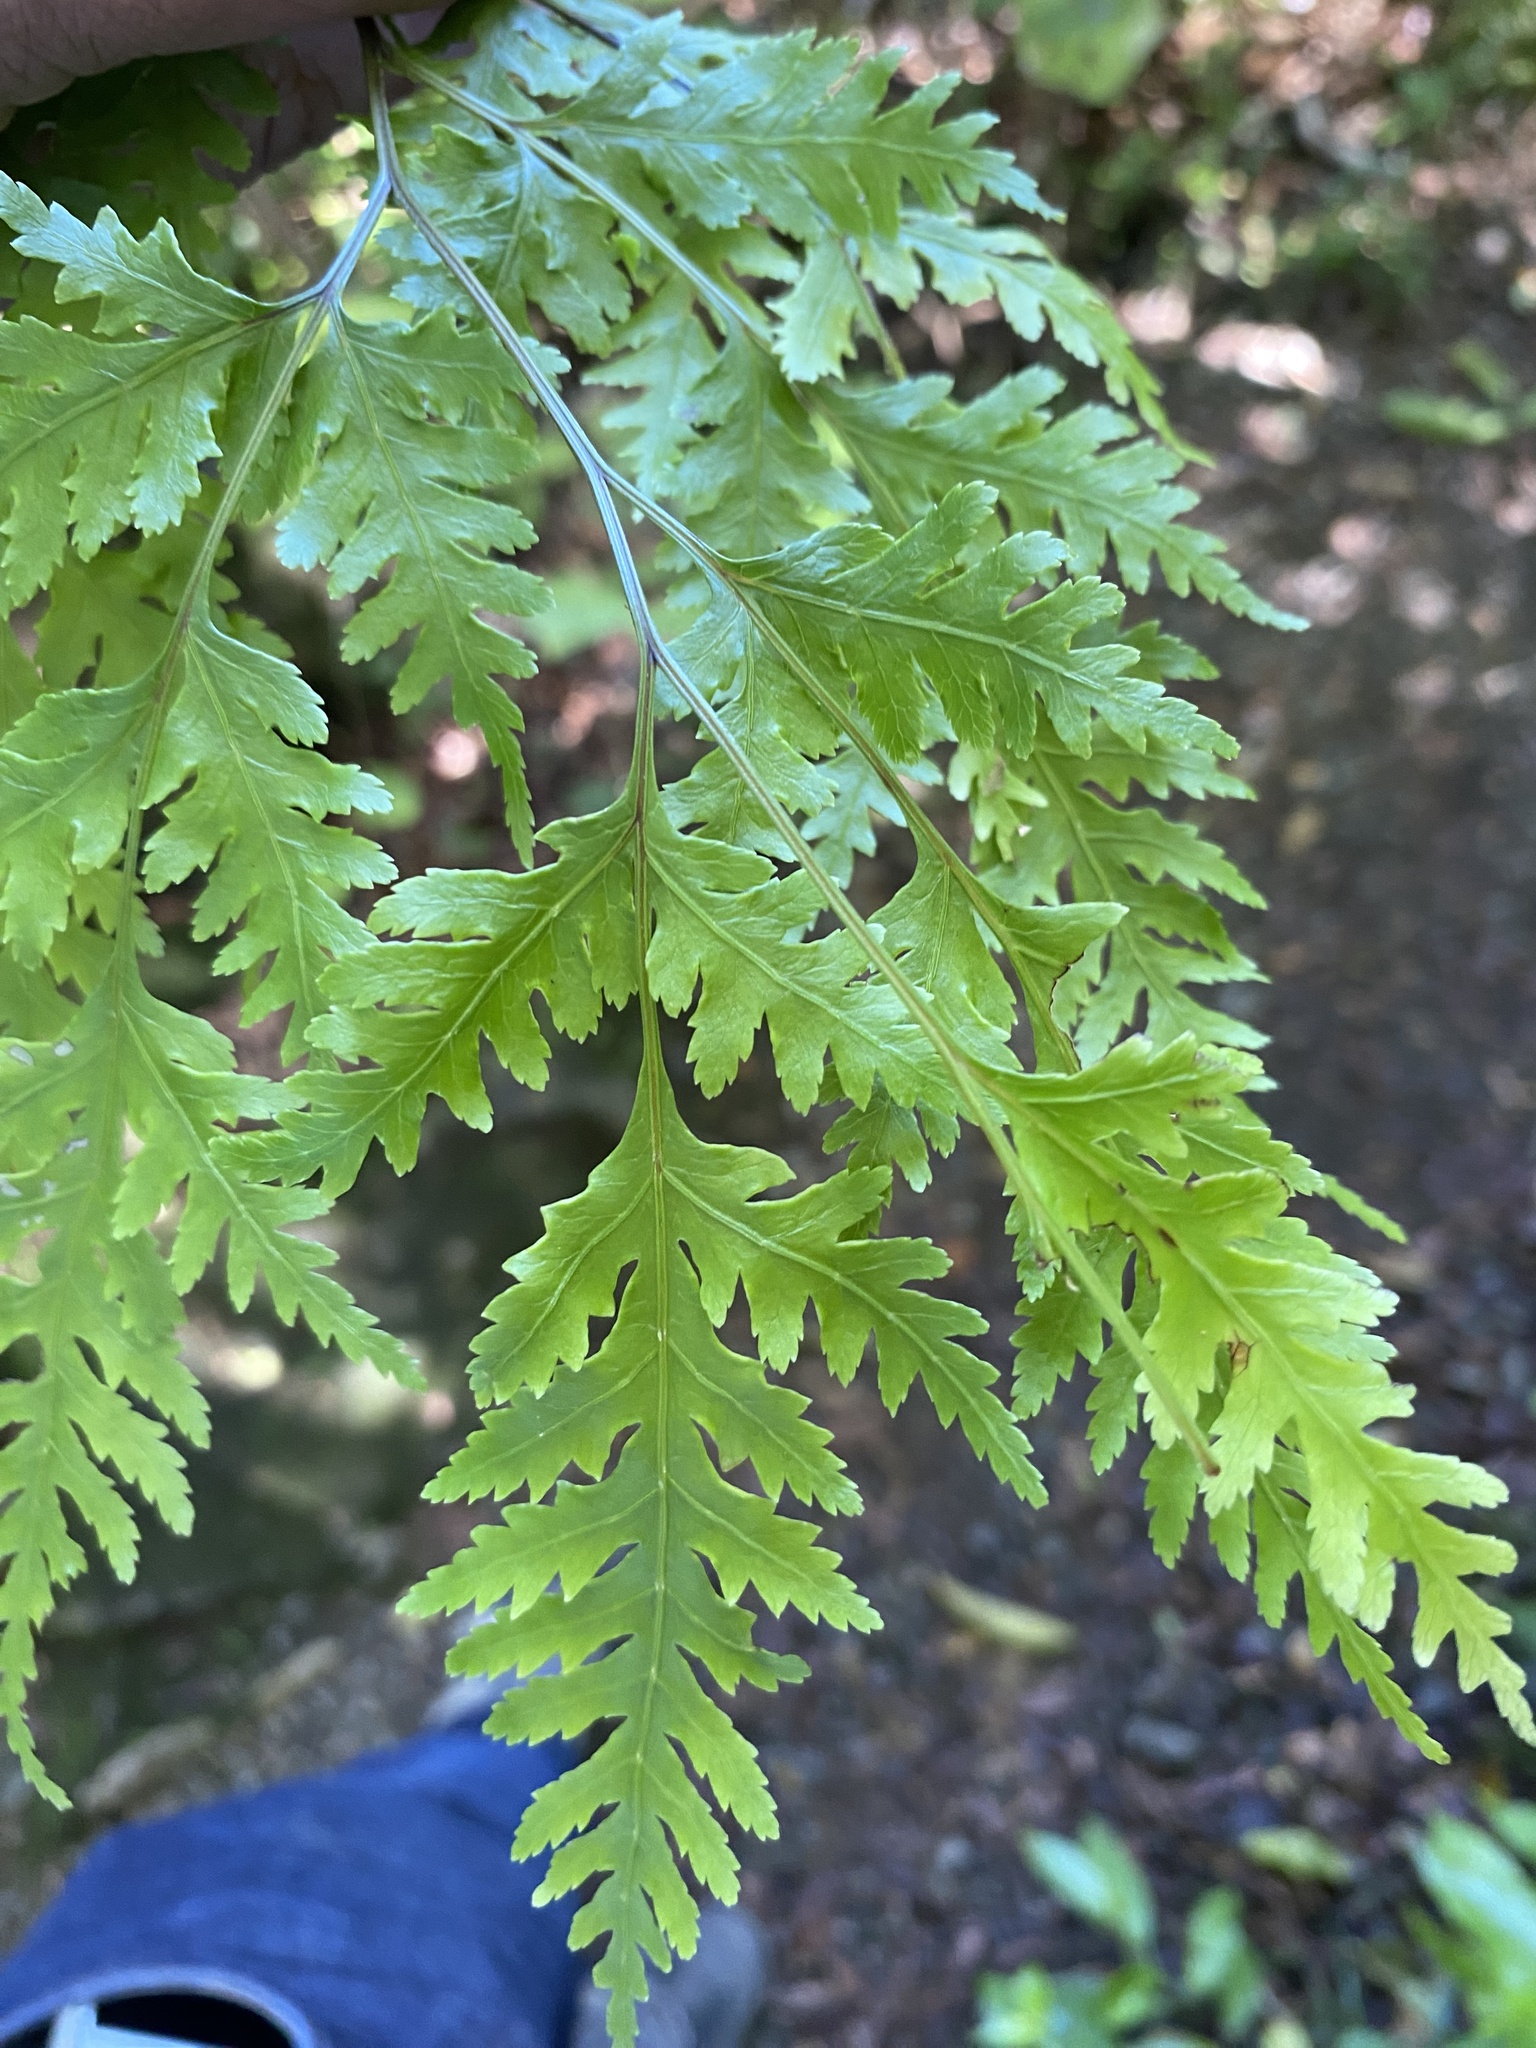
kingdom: Plantae
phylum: Tracheophyta
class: Polypodiopsida
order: Polypodiales
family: Pteridaceae
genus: Pteris
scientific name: Pteris macilenta
